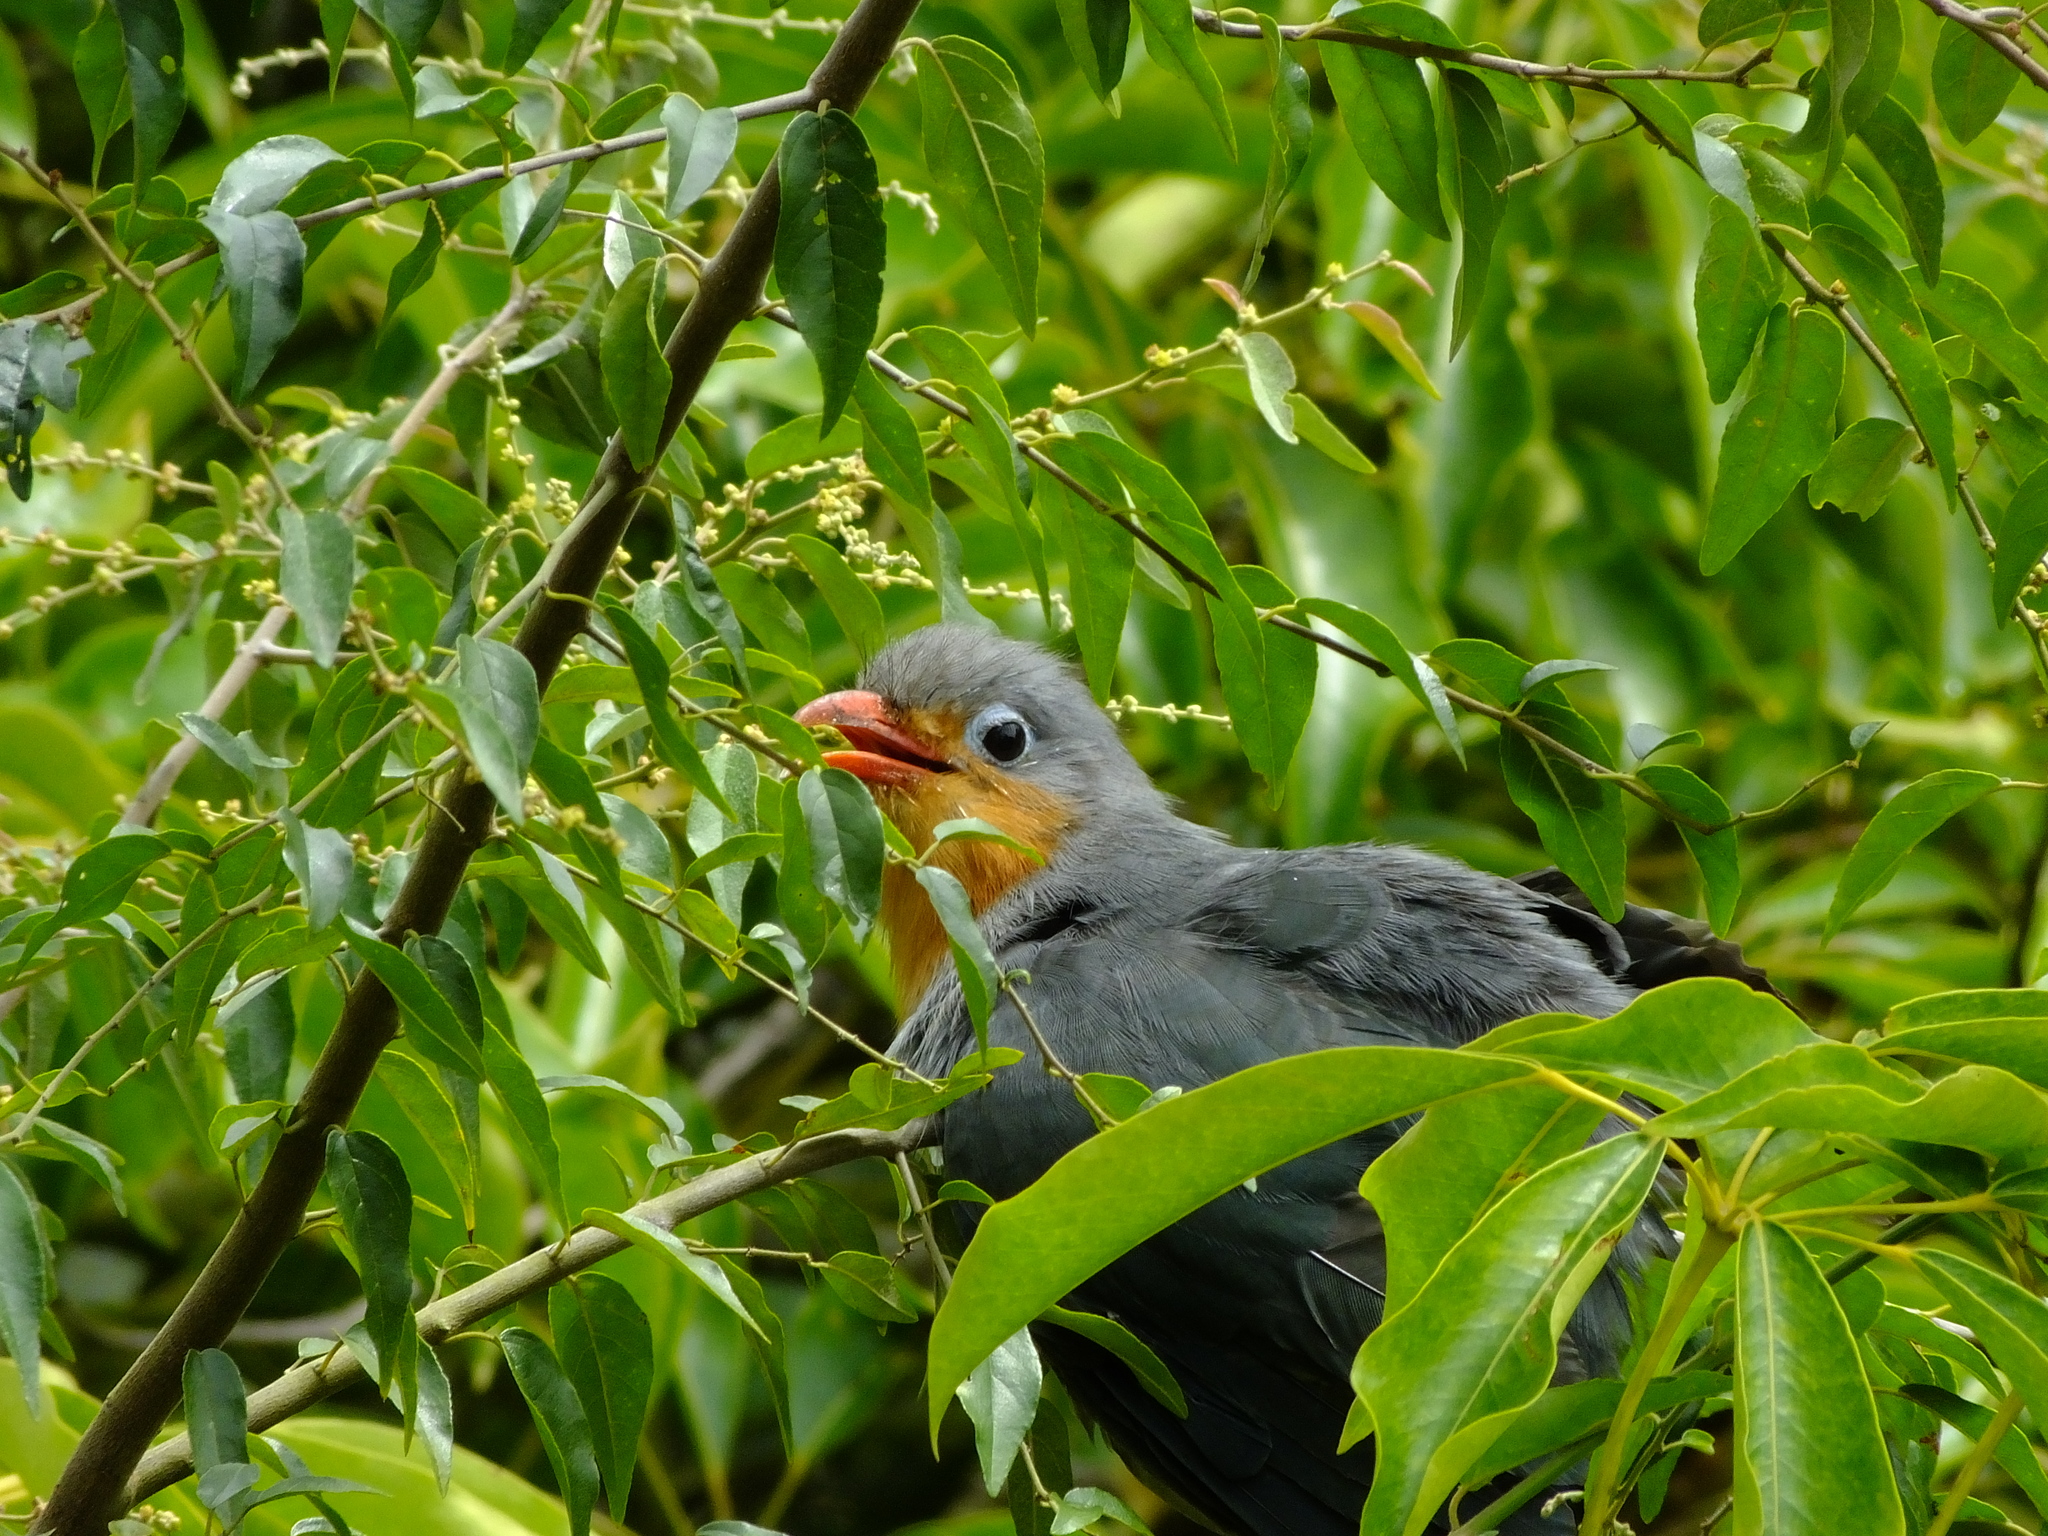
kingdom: Animalia
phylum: Chordata
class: Aves
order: Cuculiformes
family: Cuculidae
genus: Zanclostomus
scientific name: Zanclostomus javanicus
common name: Red-billed malkoha
